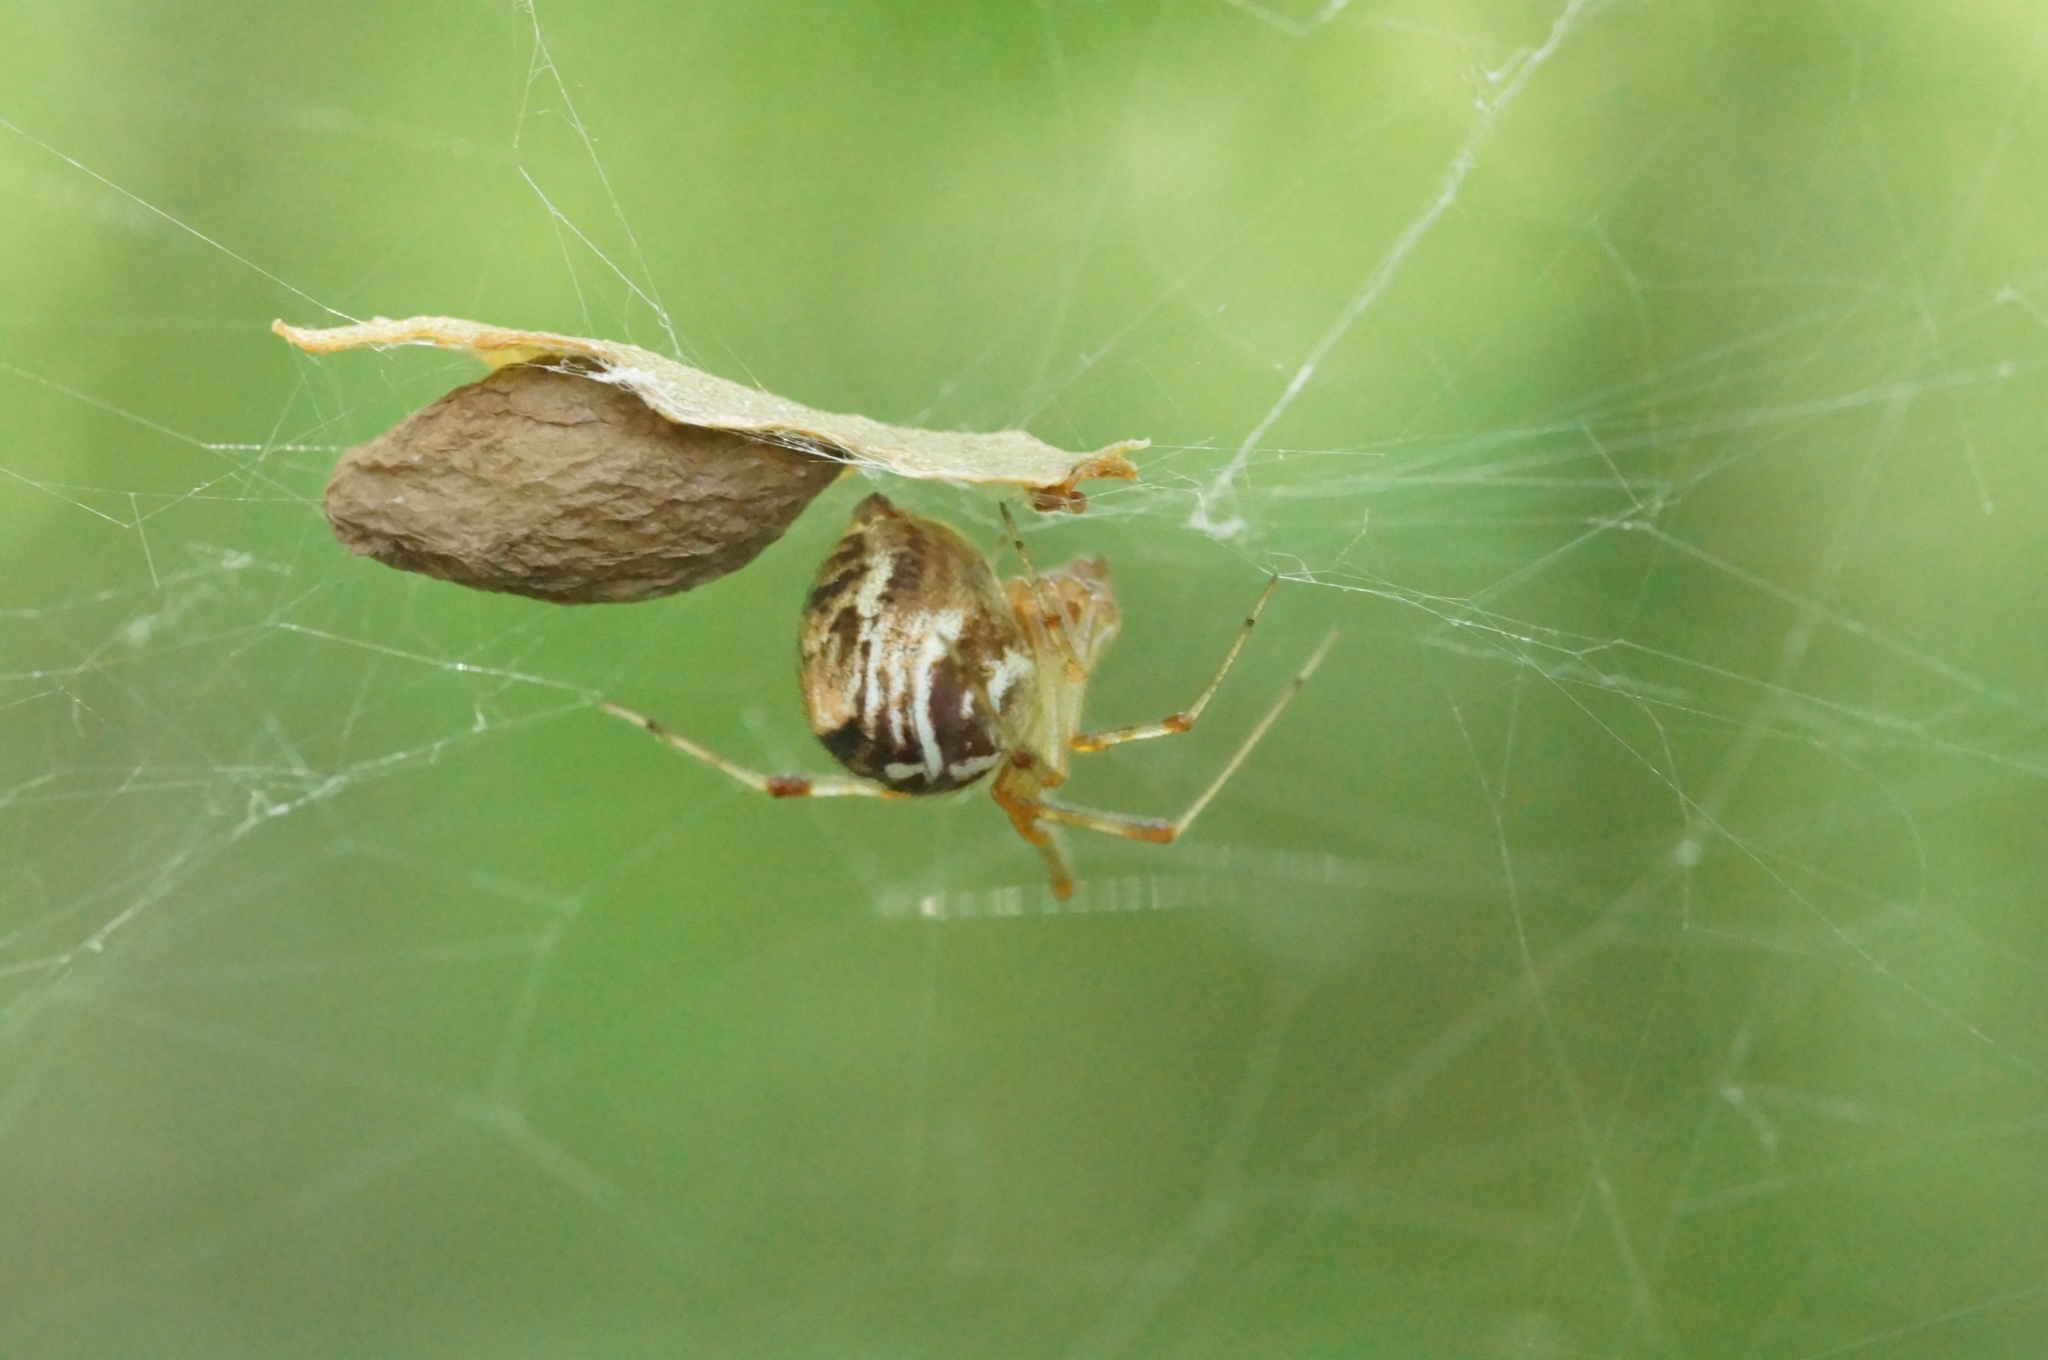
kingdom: Animalia
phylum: Arthropoda
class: Arachnida
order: Araneae
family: Theridiidae
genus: Parasteatoda
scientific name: Parasteatoda simulans
